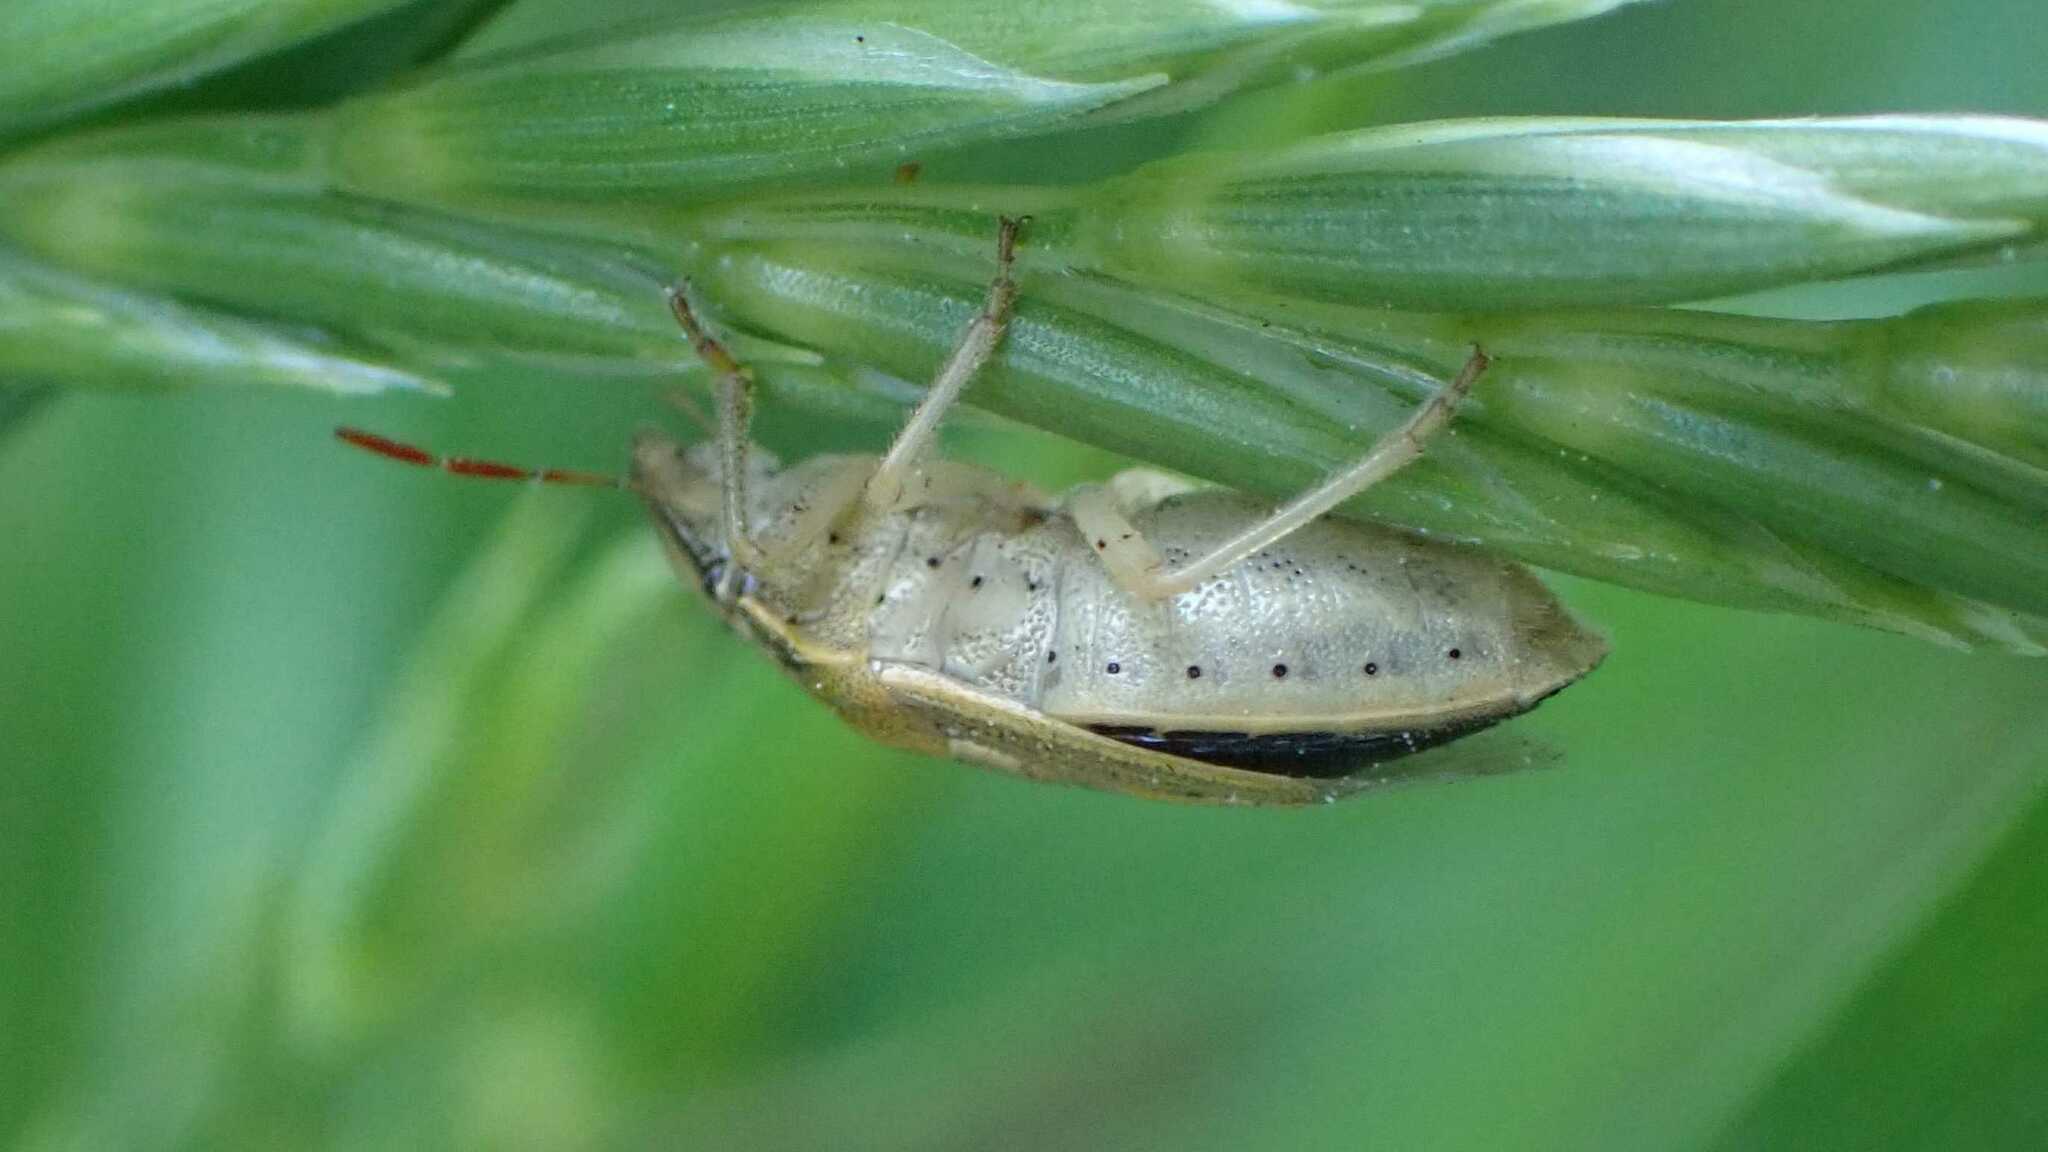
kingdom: Animalia
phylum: Arthropoda
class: Insecta
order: Hemiptera
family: Pentatomidae
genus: Aelia
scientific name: Aelia acuminata
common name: Bishop's mitre
